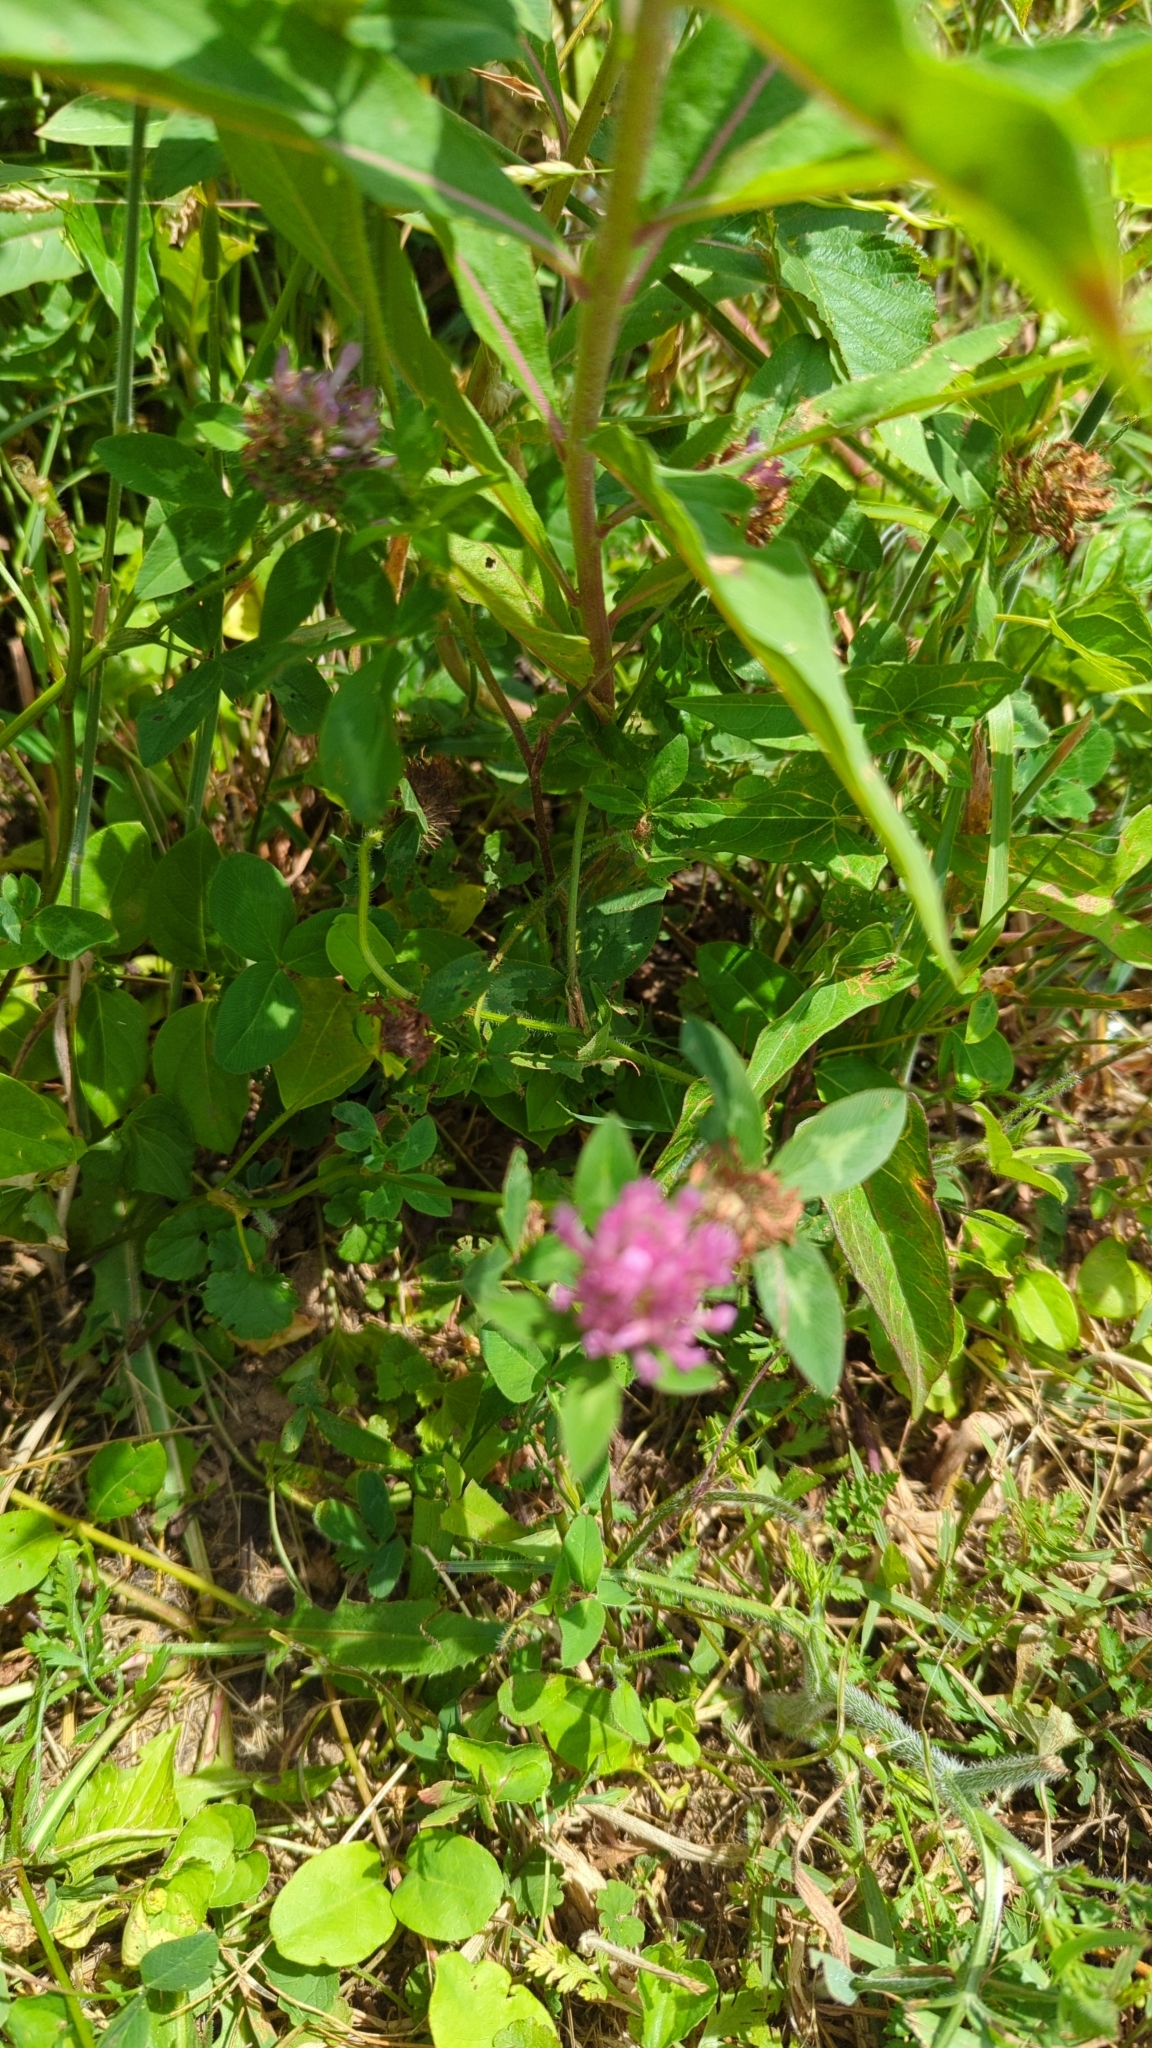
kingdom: Plantae
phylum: Tracheophyta
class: Magnoliopsida
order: Fabales
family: Fabaceae
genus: Trifolium
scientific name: Trifolium pratense
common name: Red clover
